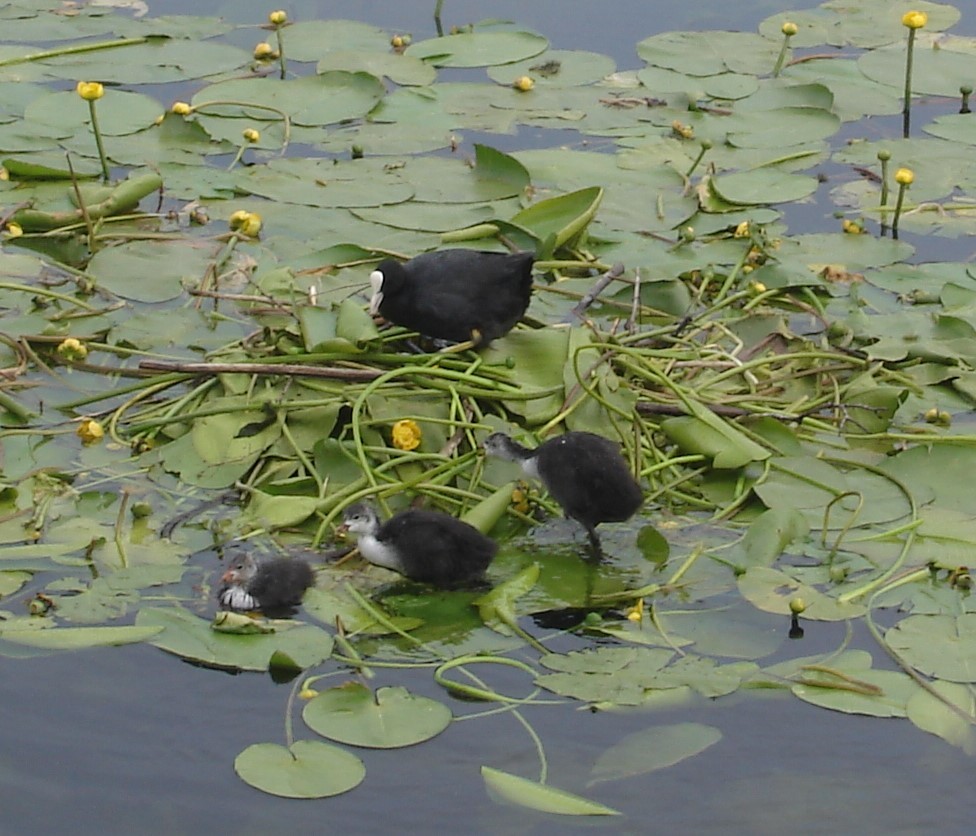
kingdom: Animalia
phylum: Chordata
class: Aves
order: Gruiformes
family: Rallidae
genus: Fulica
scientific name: Fulica atra
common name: Eurasian coot
